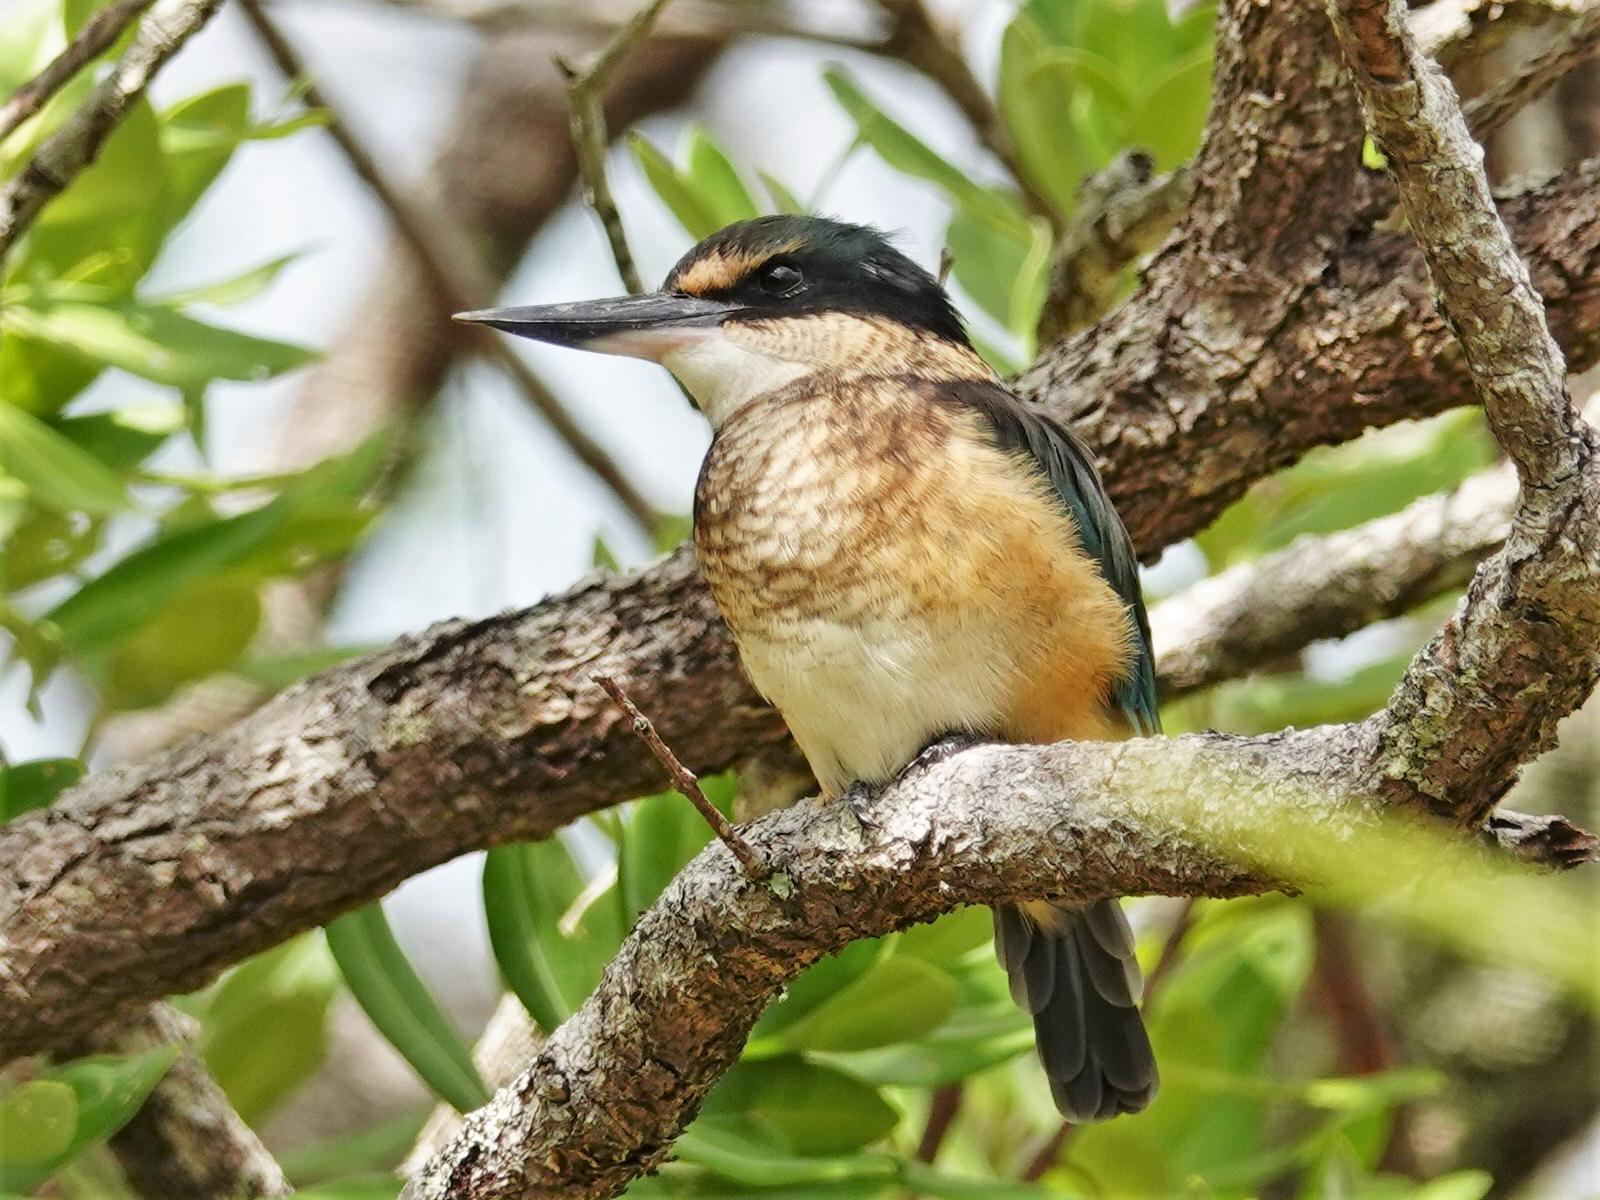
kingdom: Animalia
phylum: Chordata
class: Aves
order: Coraciiformes
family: Alcedinidae
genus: Todiramphus
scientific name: Todiramphus sanctus
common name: Sacred kingfisher
